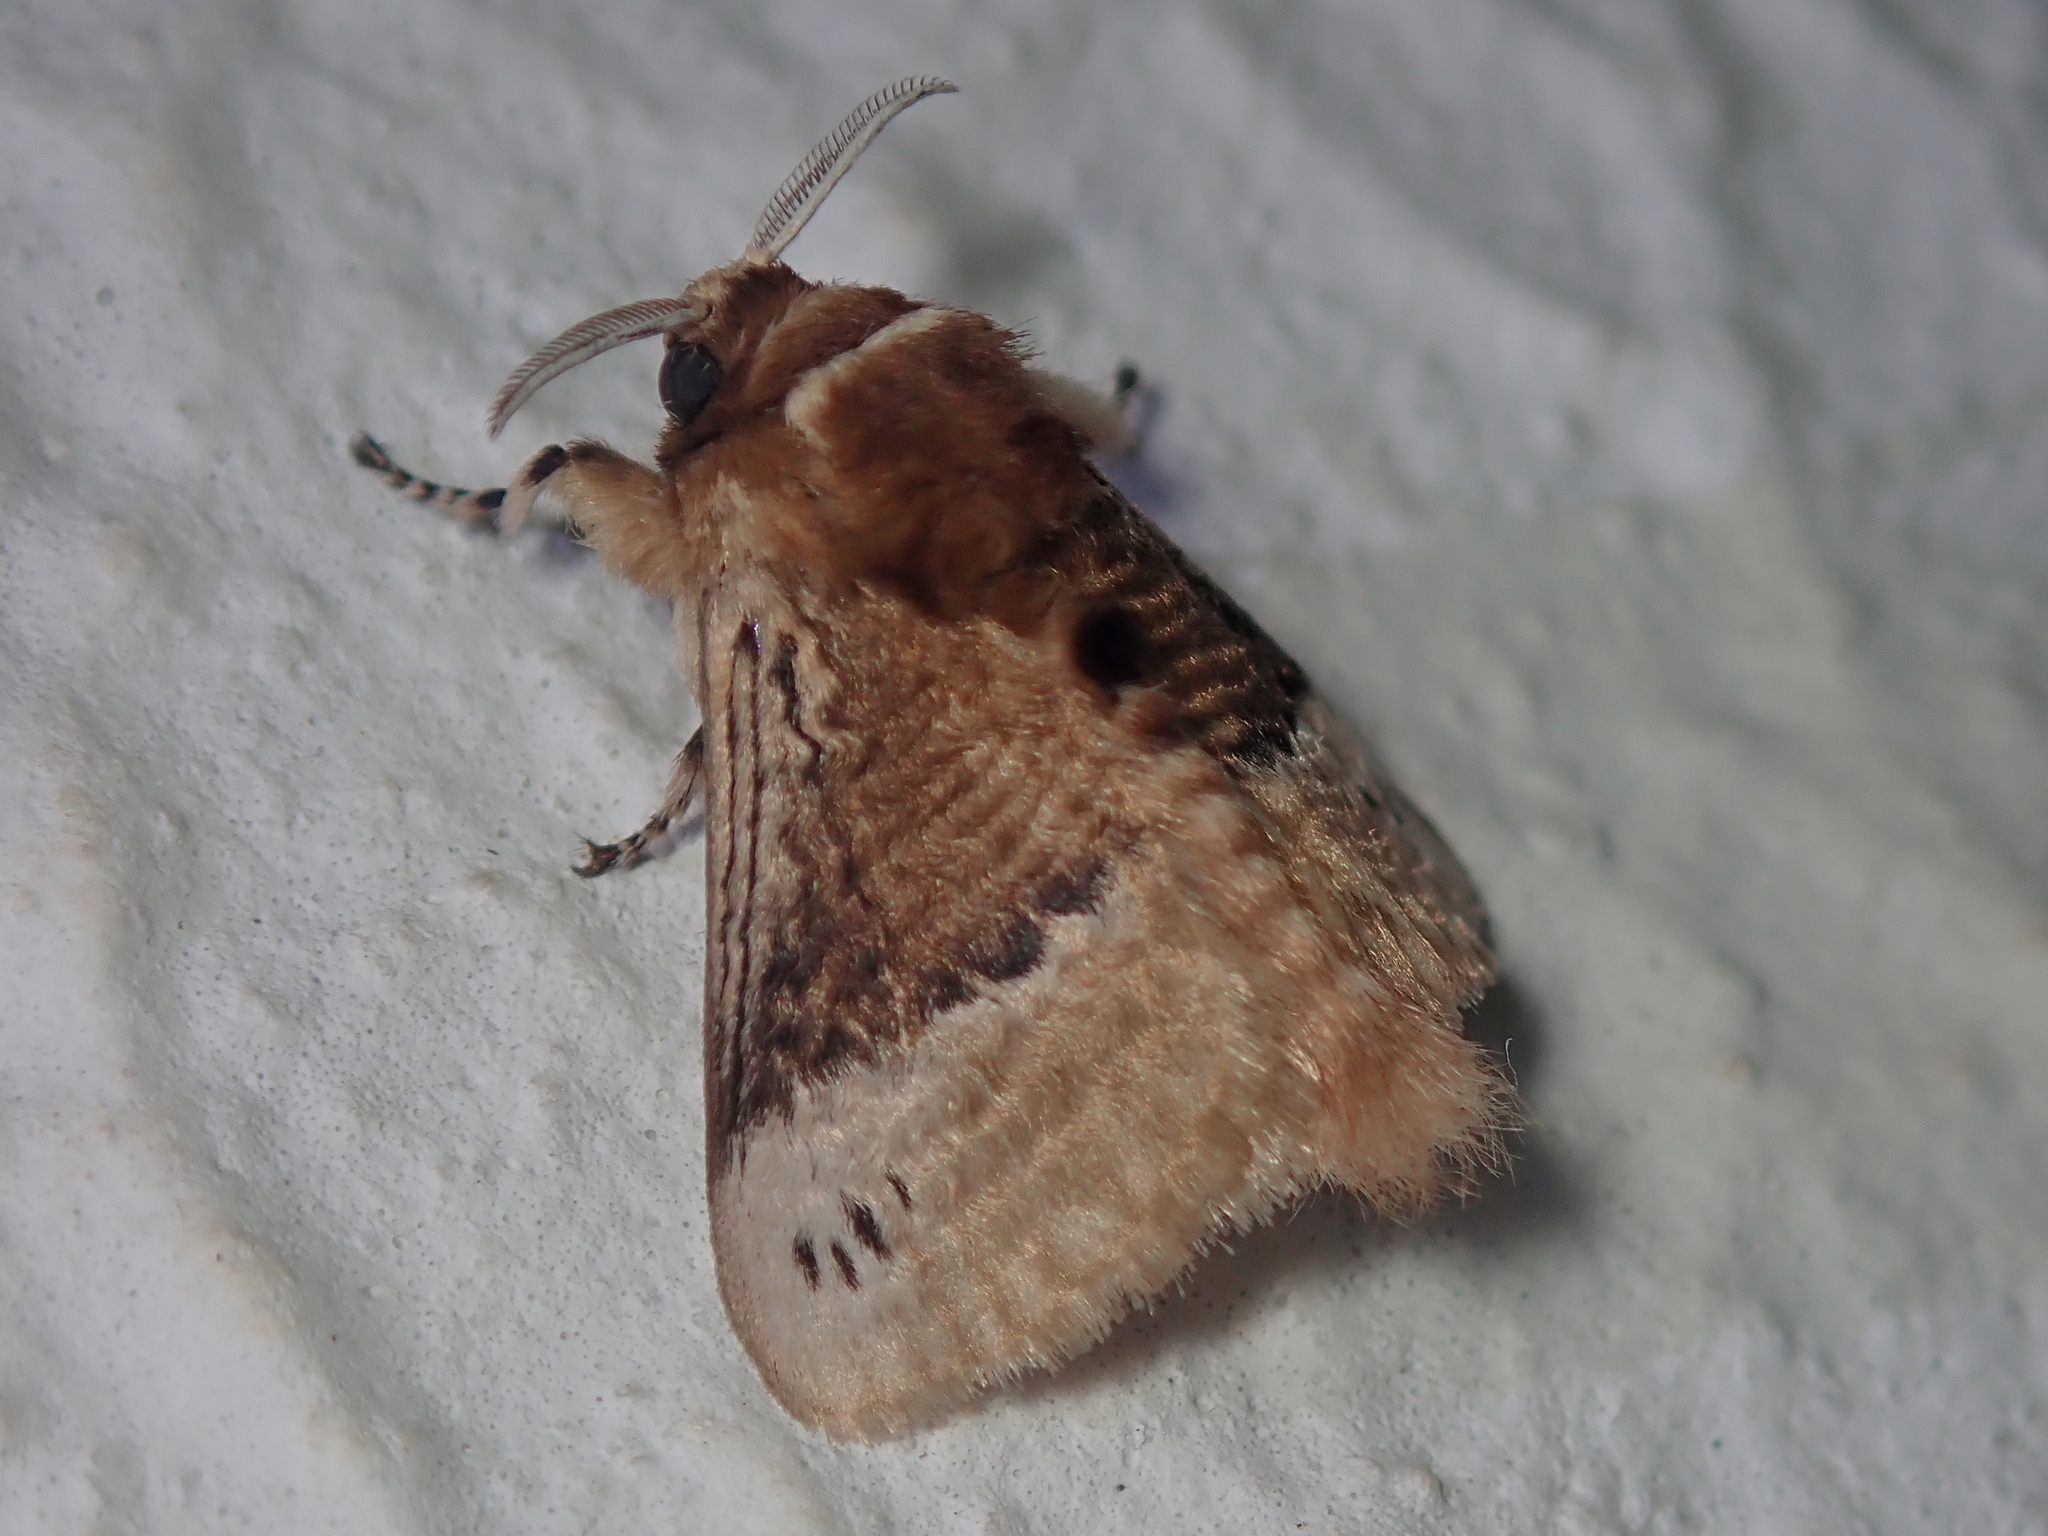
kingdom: Animalia
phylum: Arthropoda
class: Insecta
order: Lepidoptera
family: Megalopygidae
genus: Podalia
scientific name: Podalia guaya
